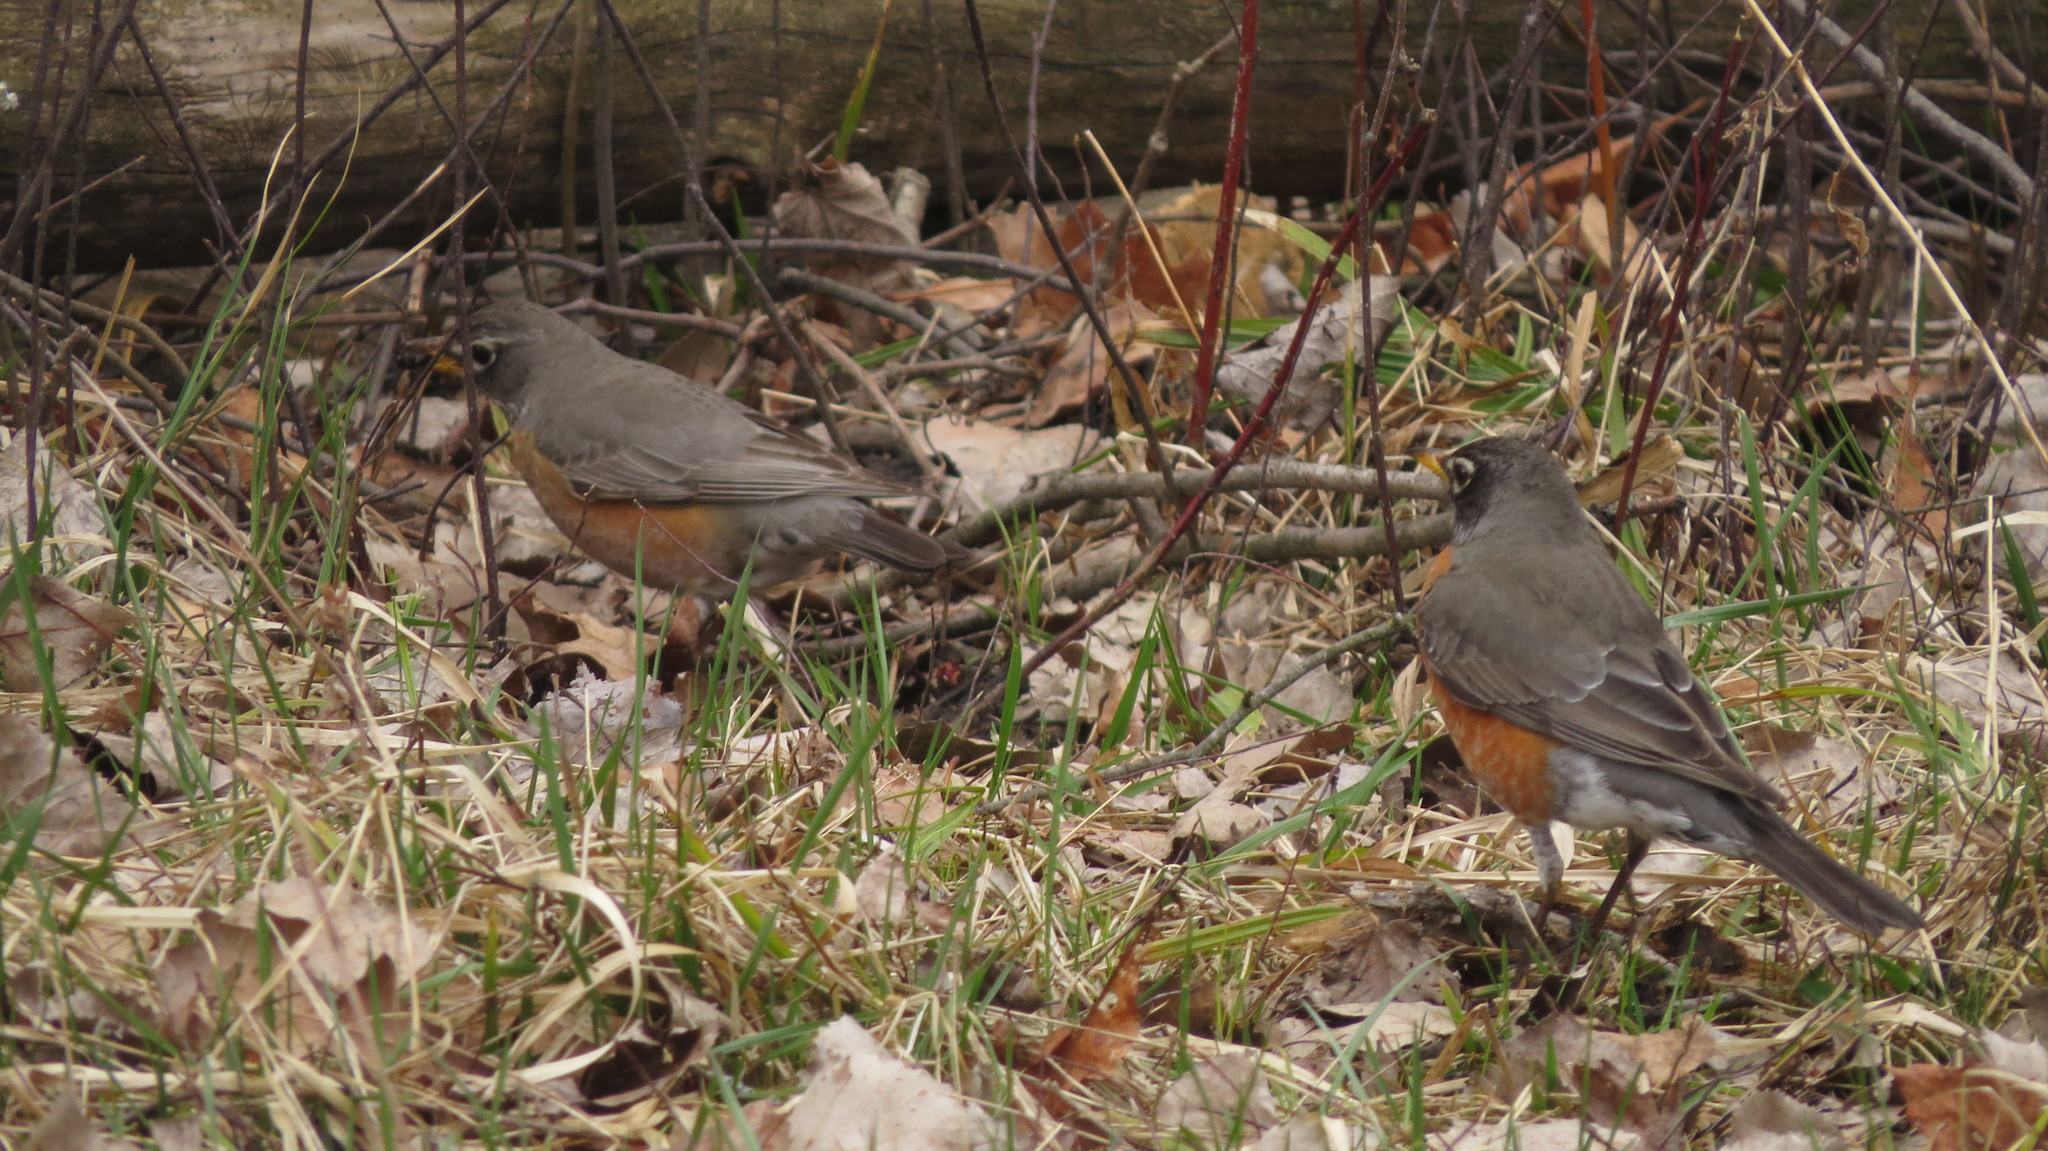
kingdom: Animalia
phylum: Chordata
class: Aves
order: Passeriformes
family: Turdidae
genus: Turdus
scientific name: Turdus migratorius
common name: American robin
